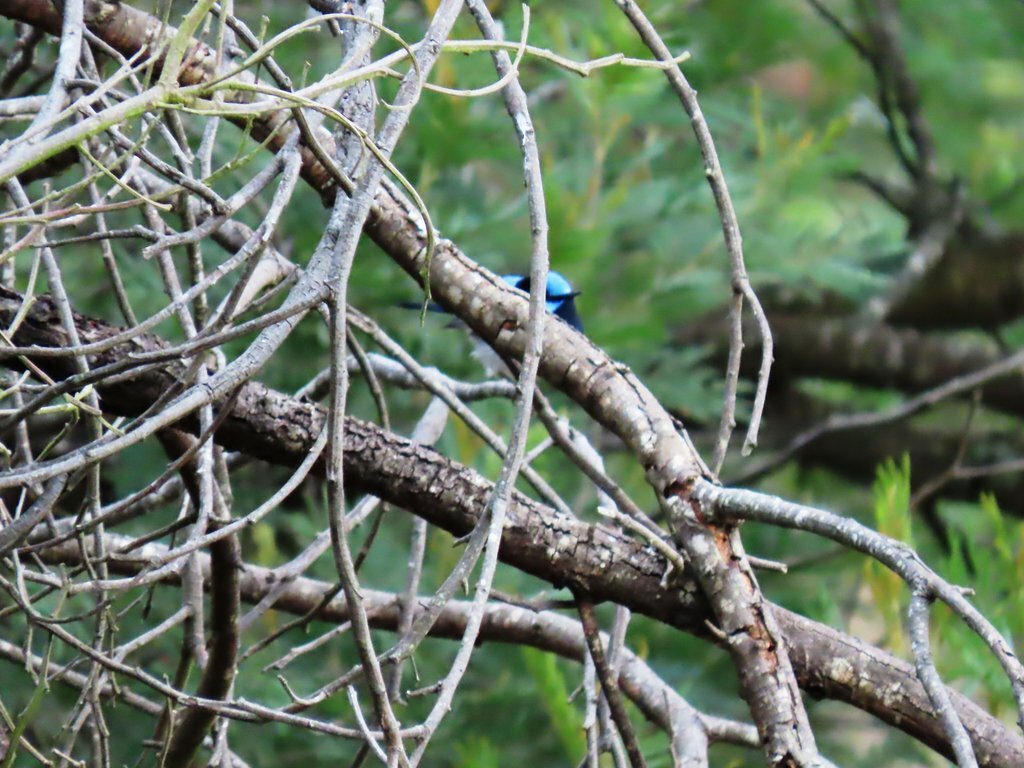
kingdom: Animalia
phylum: Chordata
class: Aves
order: Passeriformes
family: Maluridae
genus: Malurus
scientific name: Malurus cyaneus
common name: Superb fairywren
